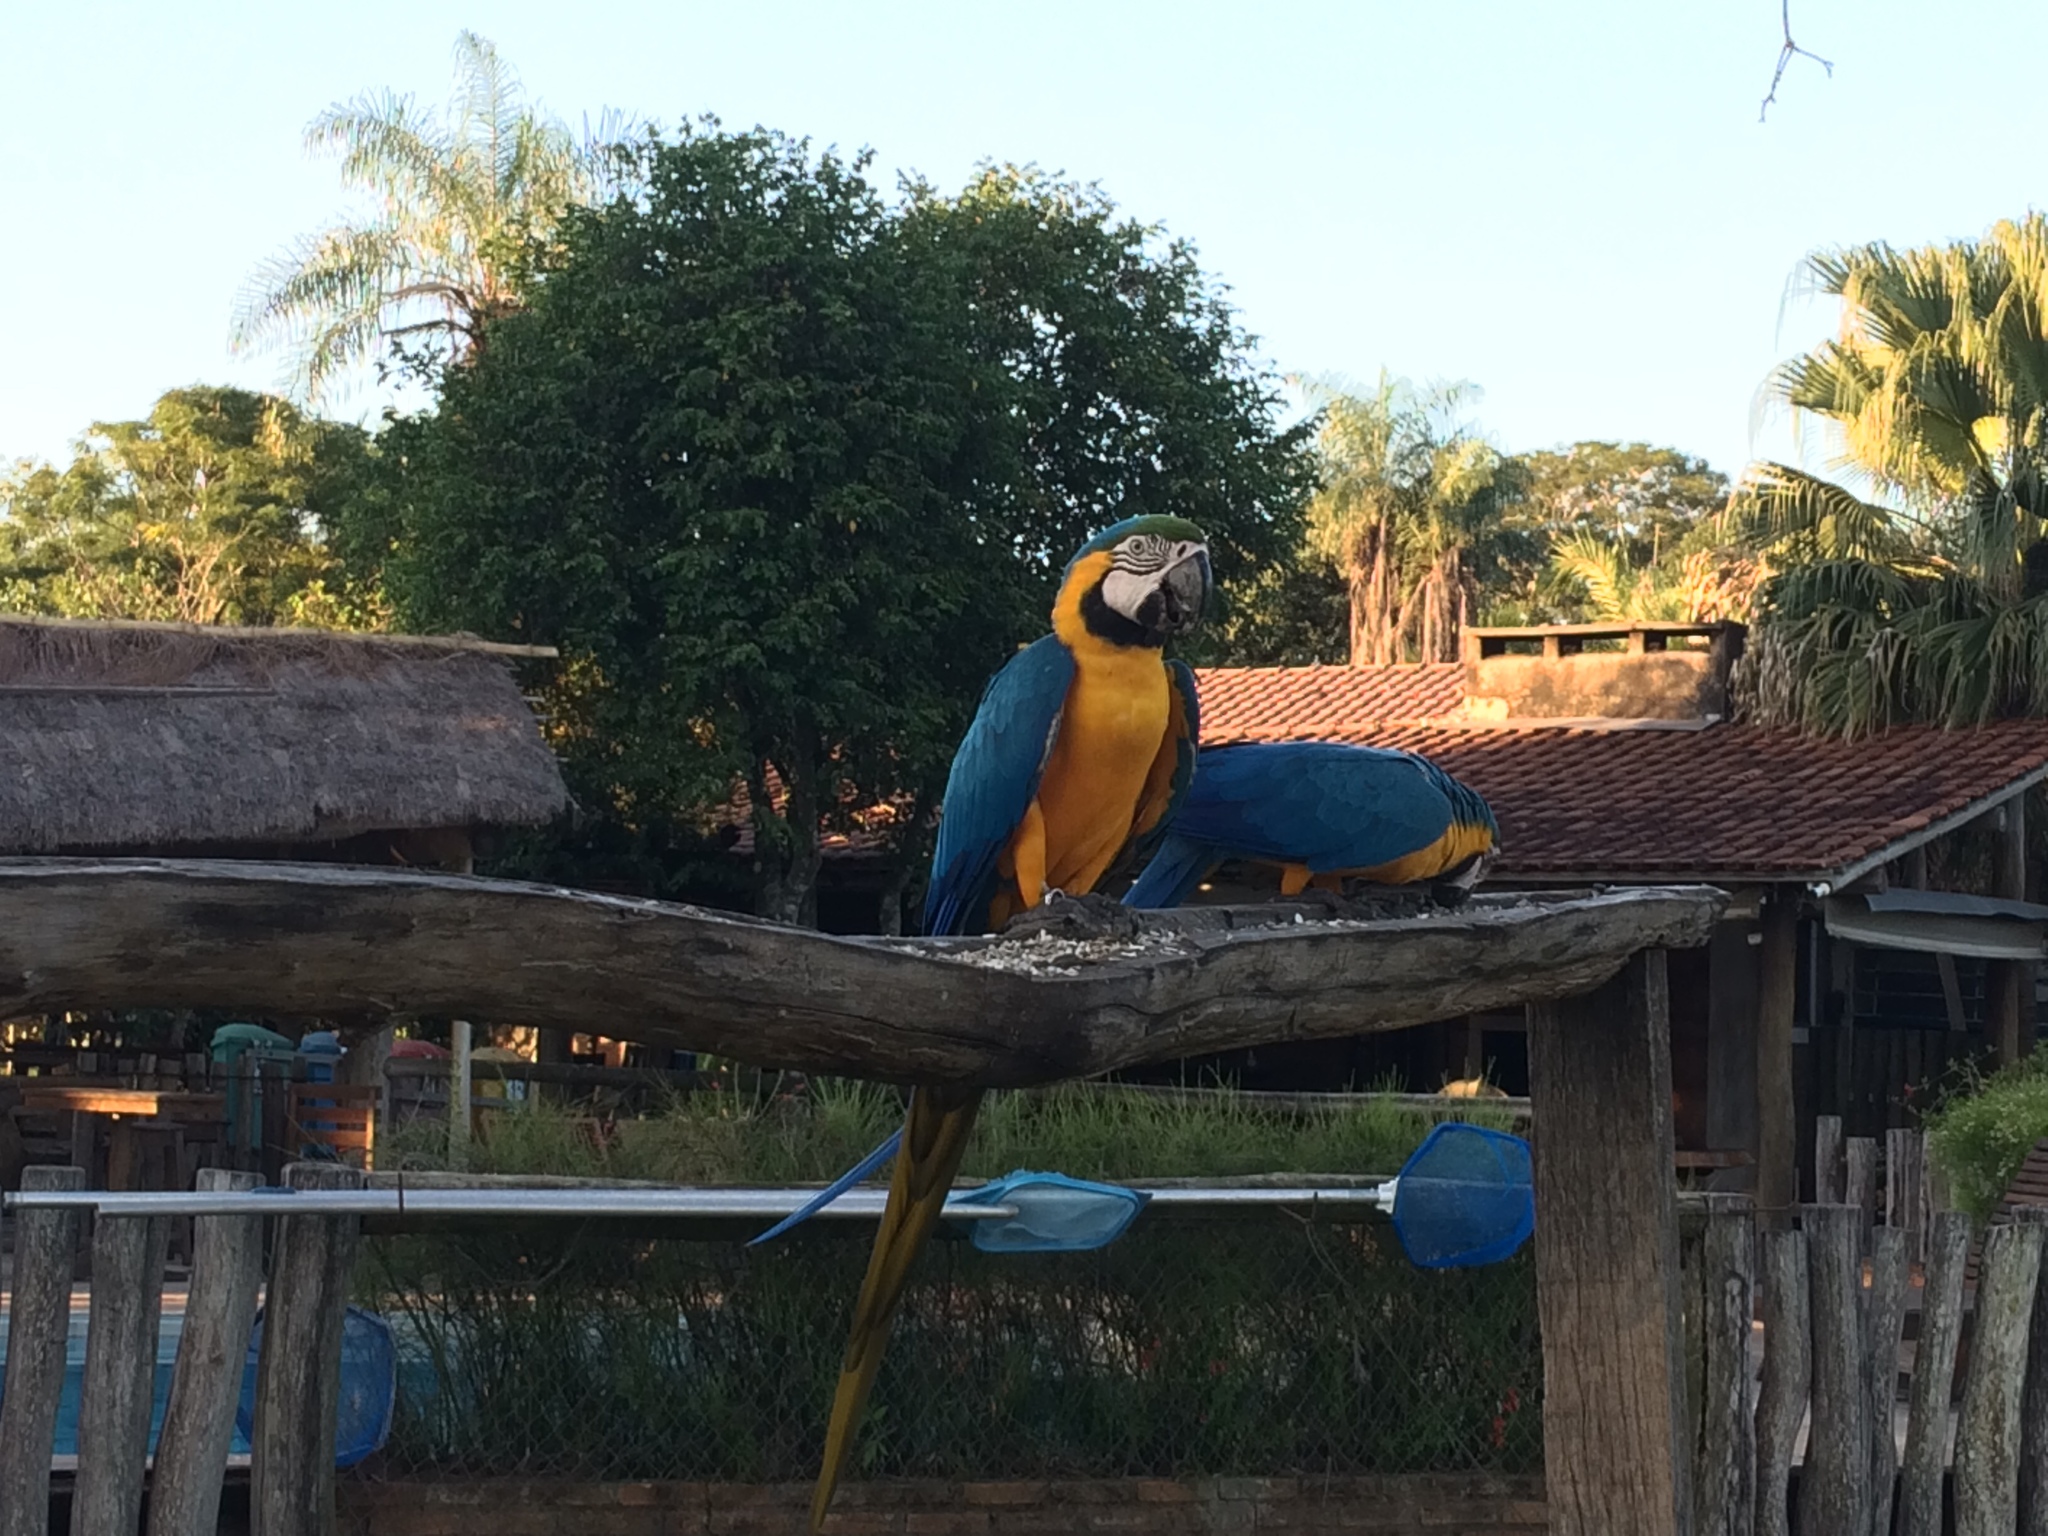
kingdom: Animalia
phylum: Chordata
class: Aves
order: Psittaciformes
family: Psittacidae
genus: Ara
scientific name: Ara ararauna
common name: Blue-and-yellow macaw
